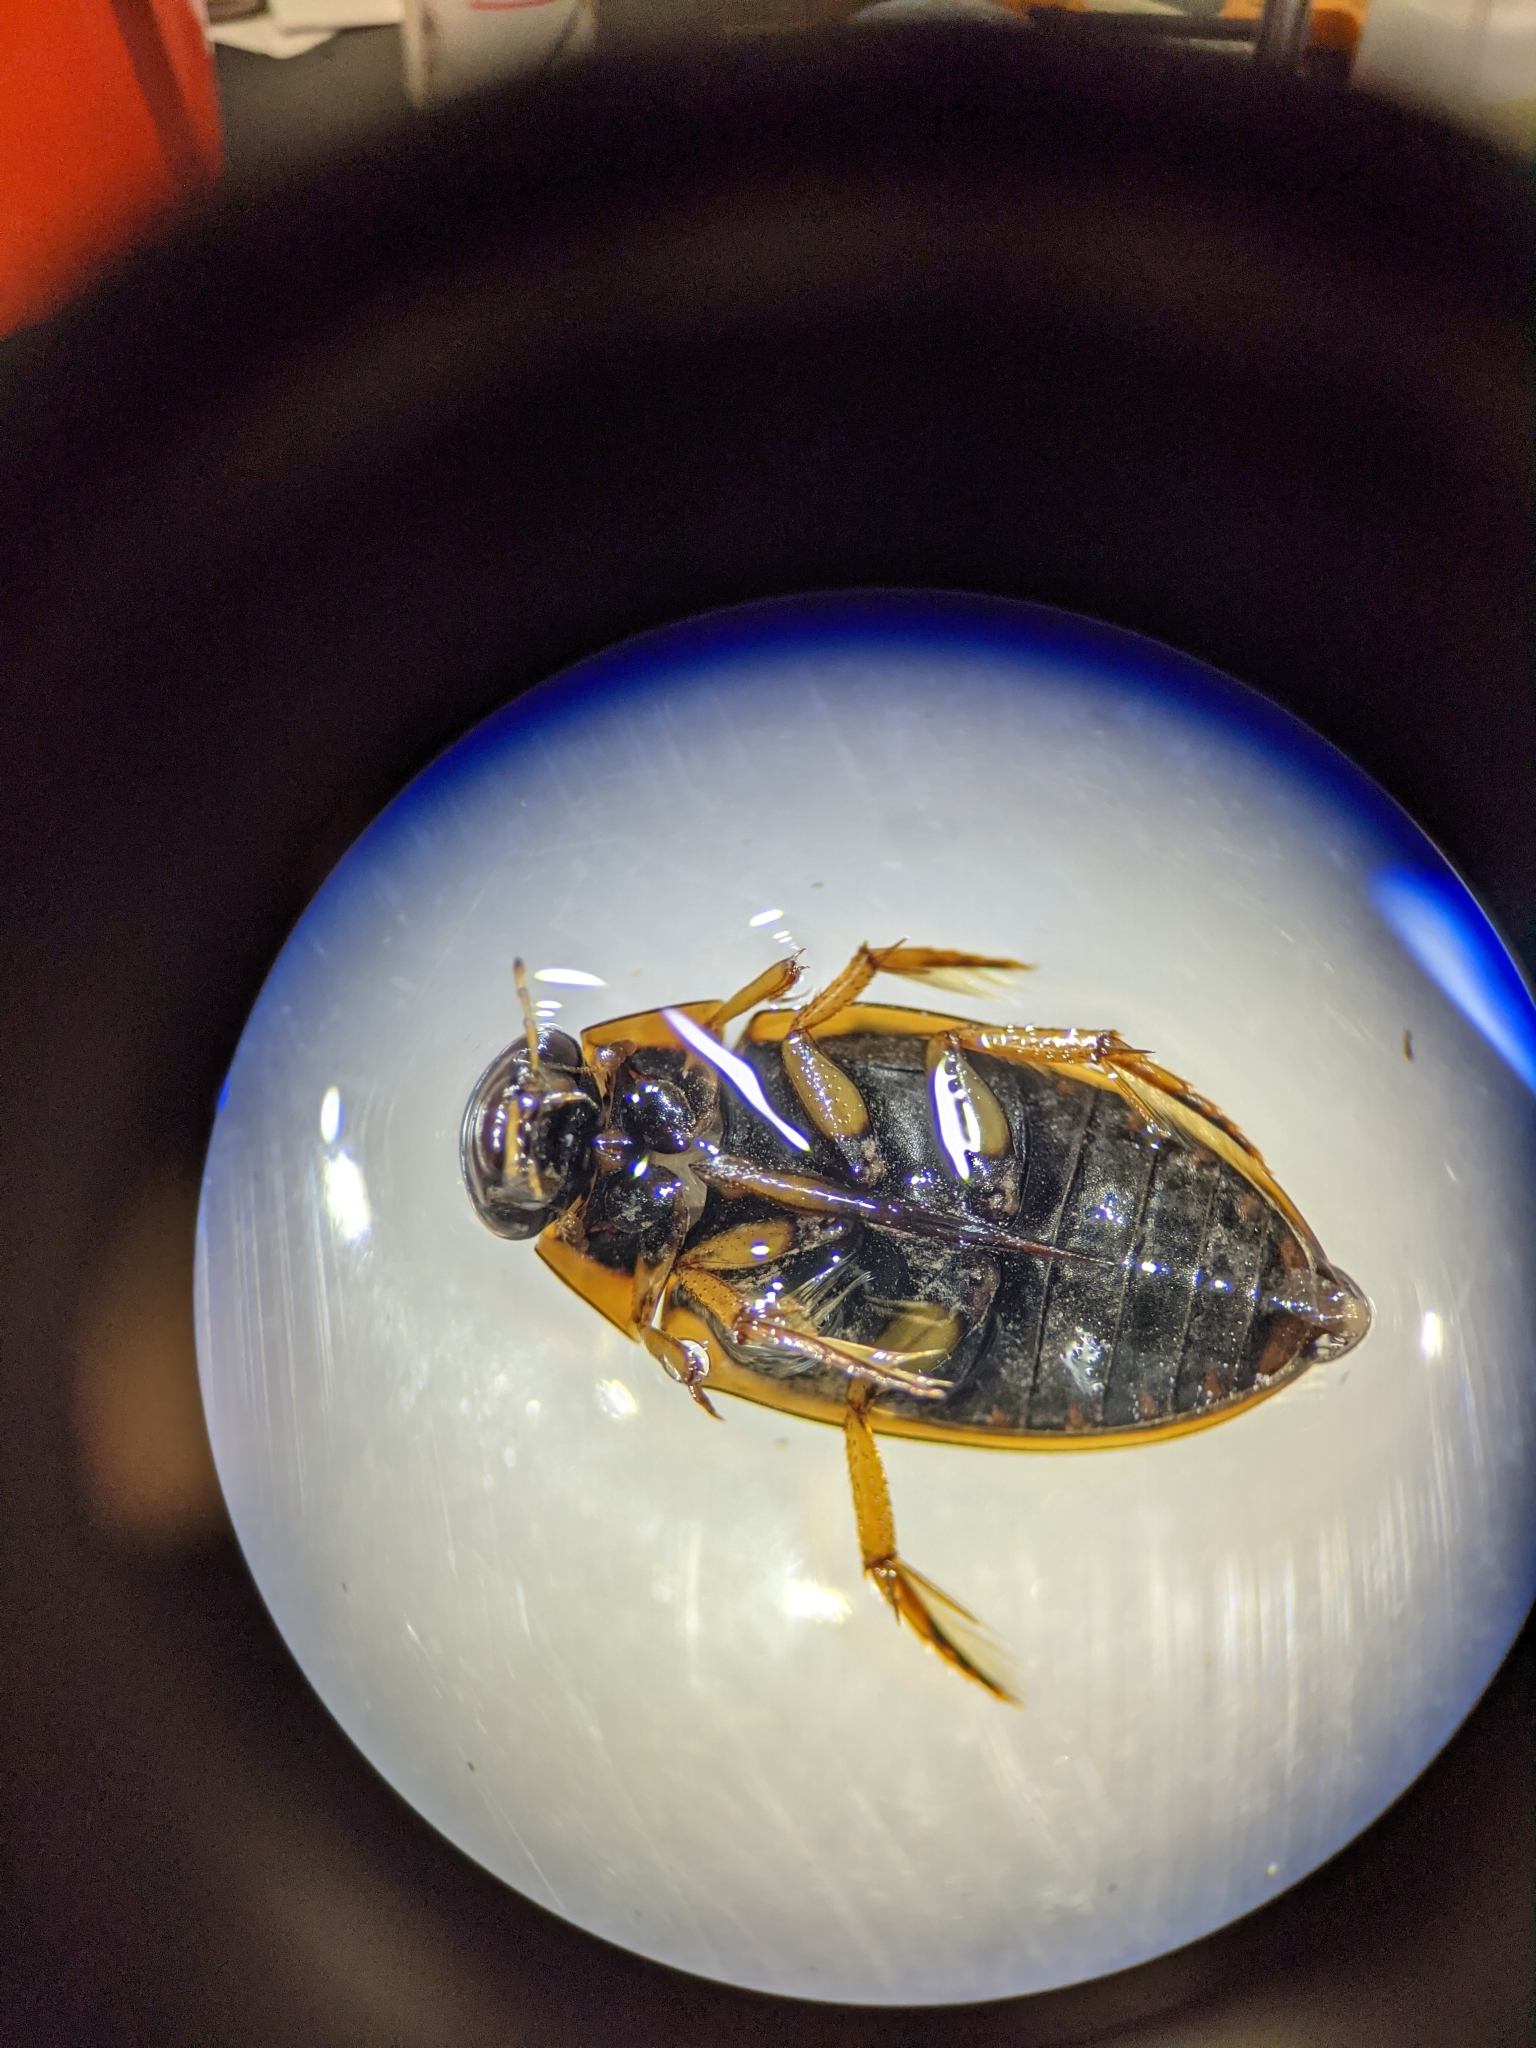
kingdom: Animalia
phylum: Arthropoda
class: Insecta
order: Coleoptera
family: Hydrophilidae
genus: Tropisternus
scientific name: Tropisternus lateralis
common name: Lateral-banded water scavenger beetle
